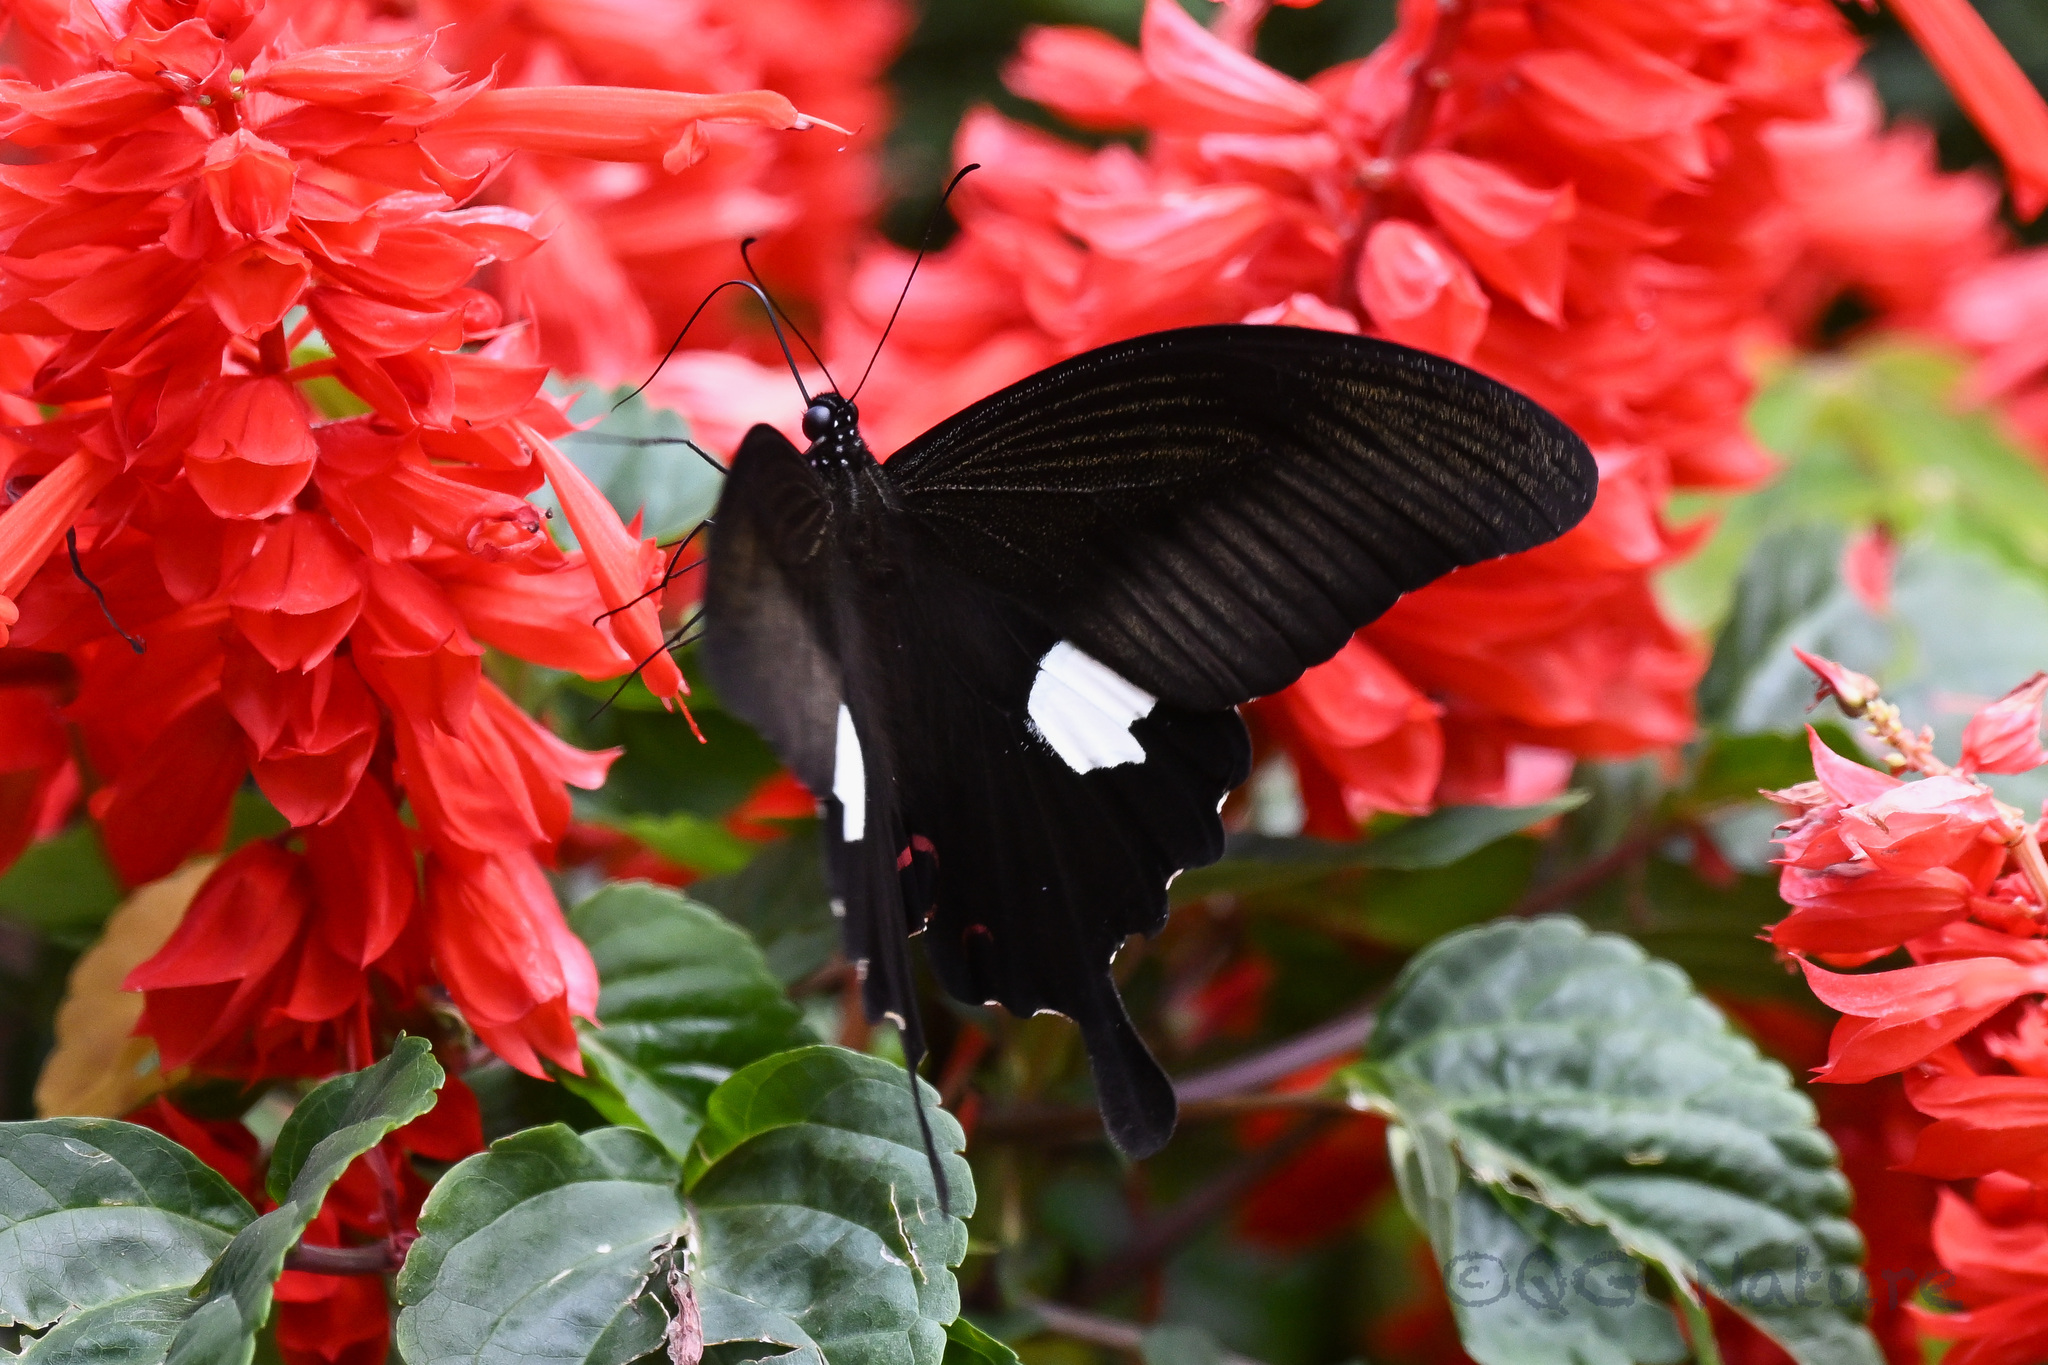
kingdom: Animalia
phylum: Arthropoda
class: Insecta
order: Lepidoptera
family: Papilionidae
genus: Papilio
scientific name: Papilio helenus
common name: Red helen
